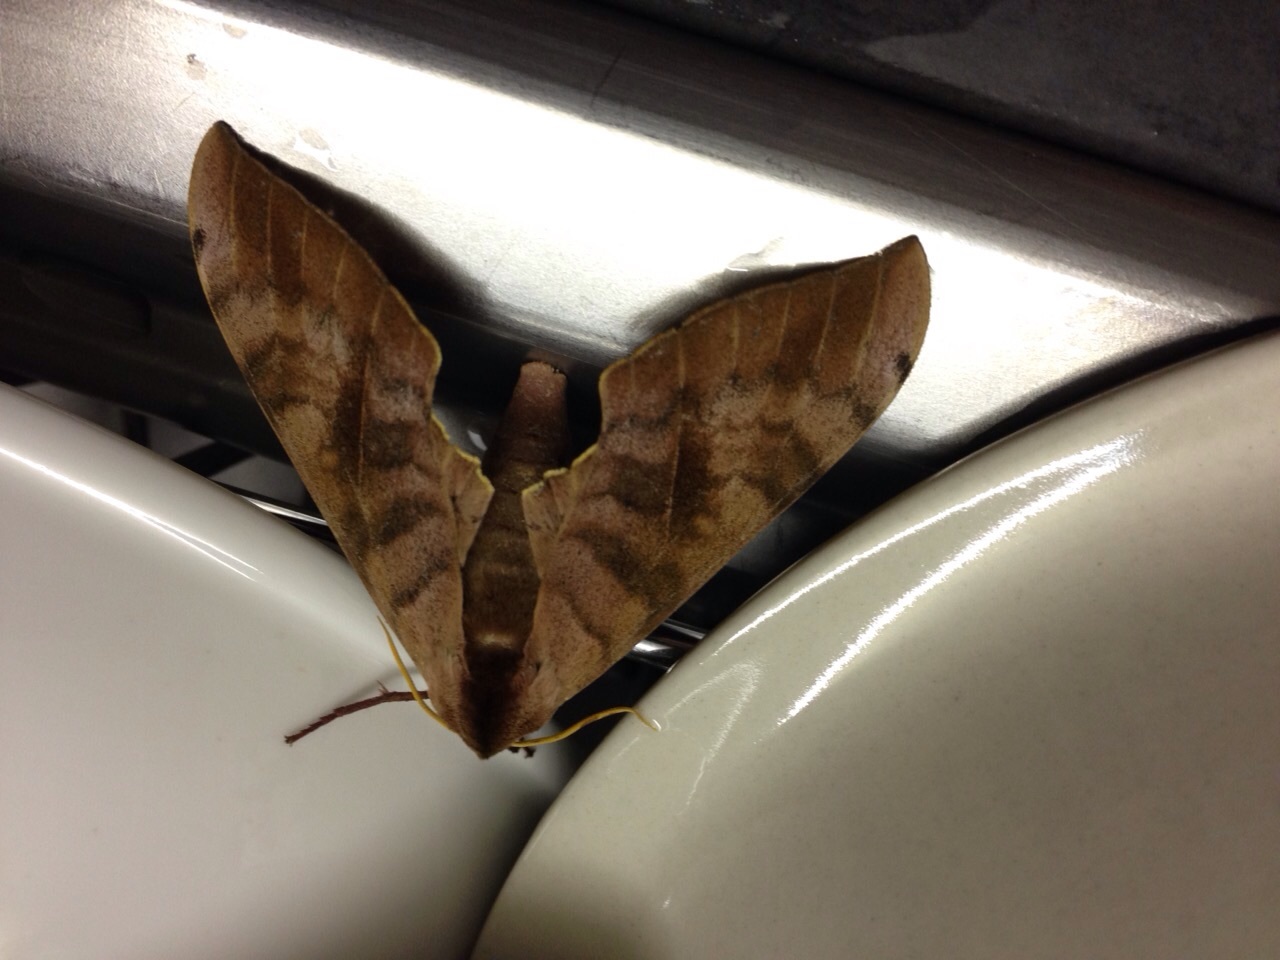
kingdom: Animalia
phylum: Arthropoda
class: Insecta
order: Lepidoptera
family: Sphingidae
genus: Pseudoclanis
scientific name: Pseudoclanis postica
